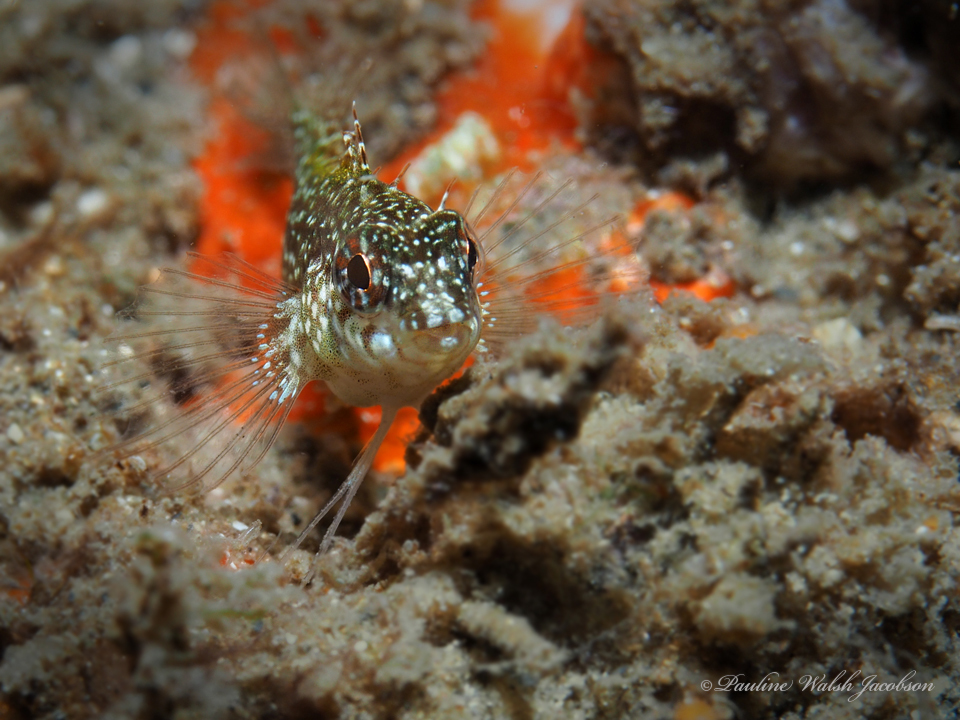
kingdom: Animalia
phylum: Chordata
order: Perciformes
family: Labrisomidae
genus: Malacoctenus
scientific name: Malacoctenus macropus
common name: Rosy blenny
